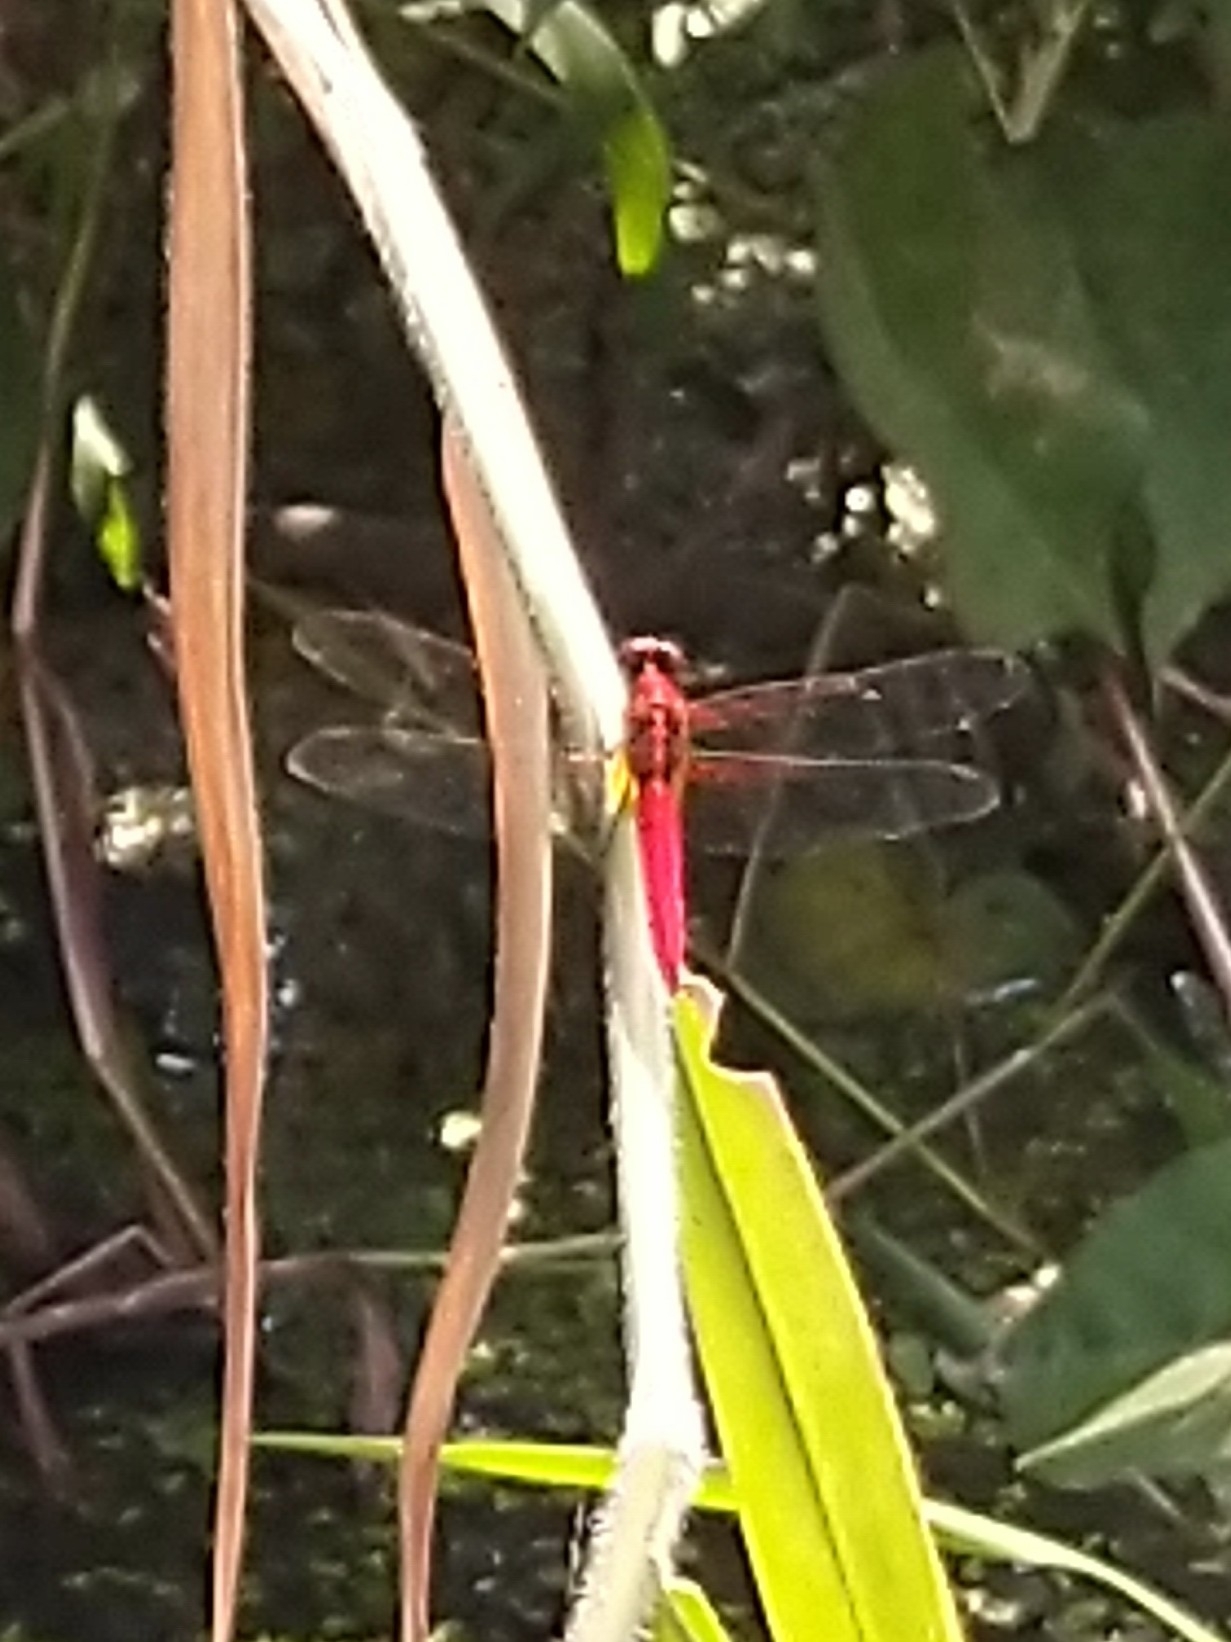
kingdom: Animalia
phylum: Arthropoda
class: Insecta
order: Odonata
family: Libellulidae
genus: Rhodothemis
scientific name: Rhodothemis rufa
